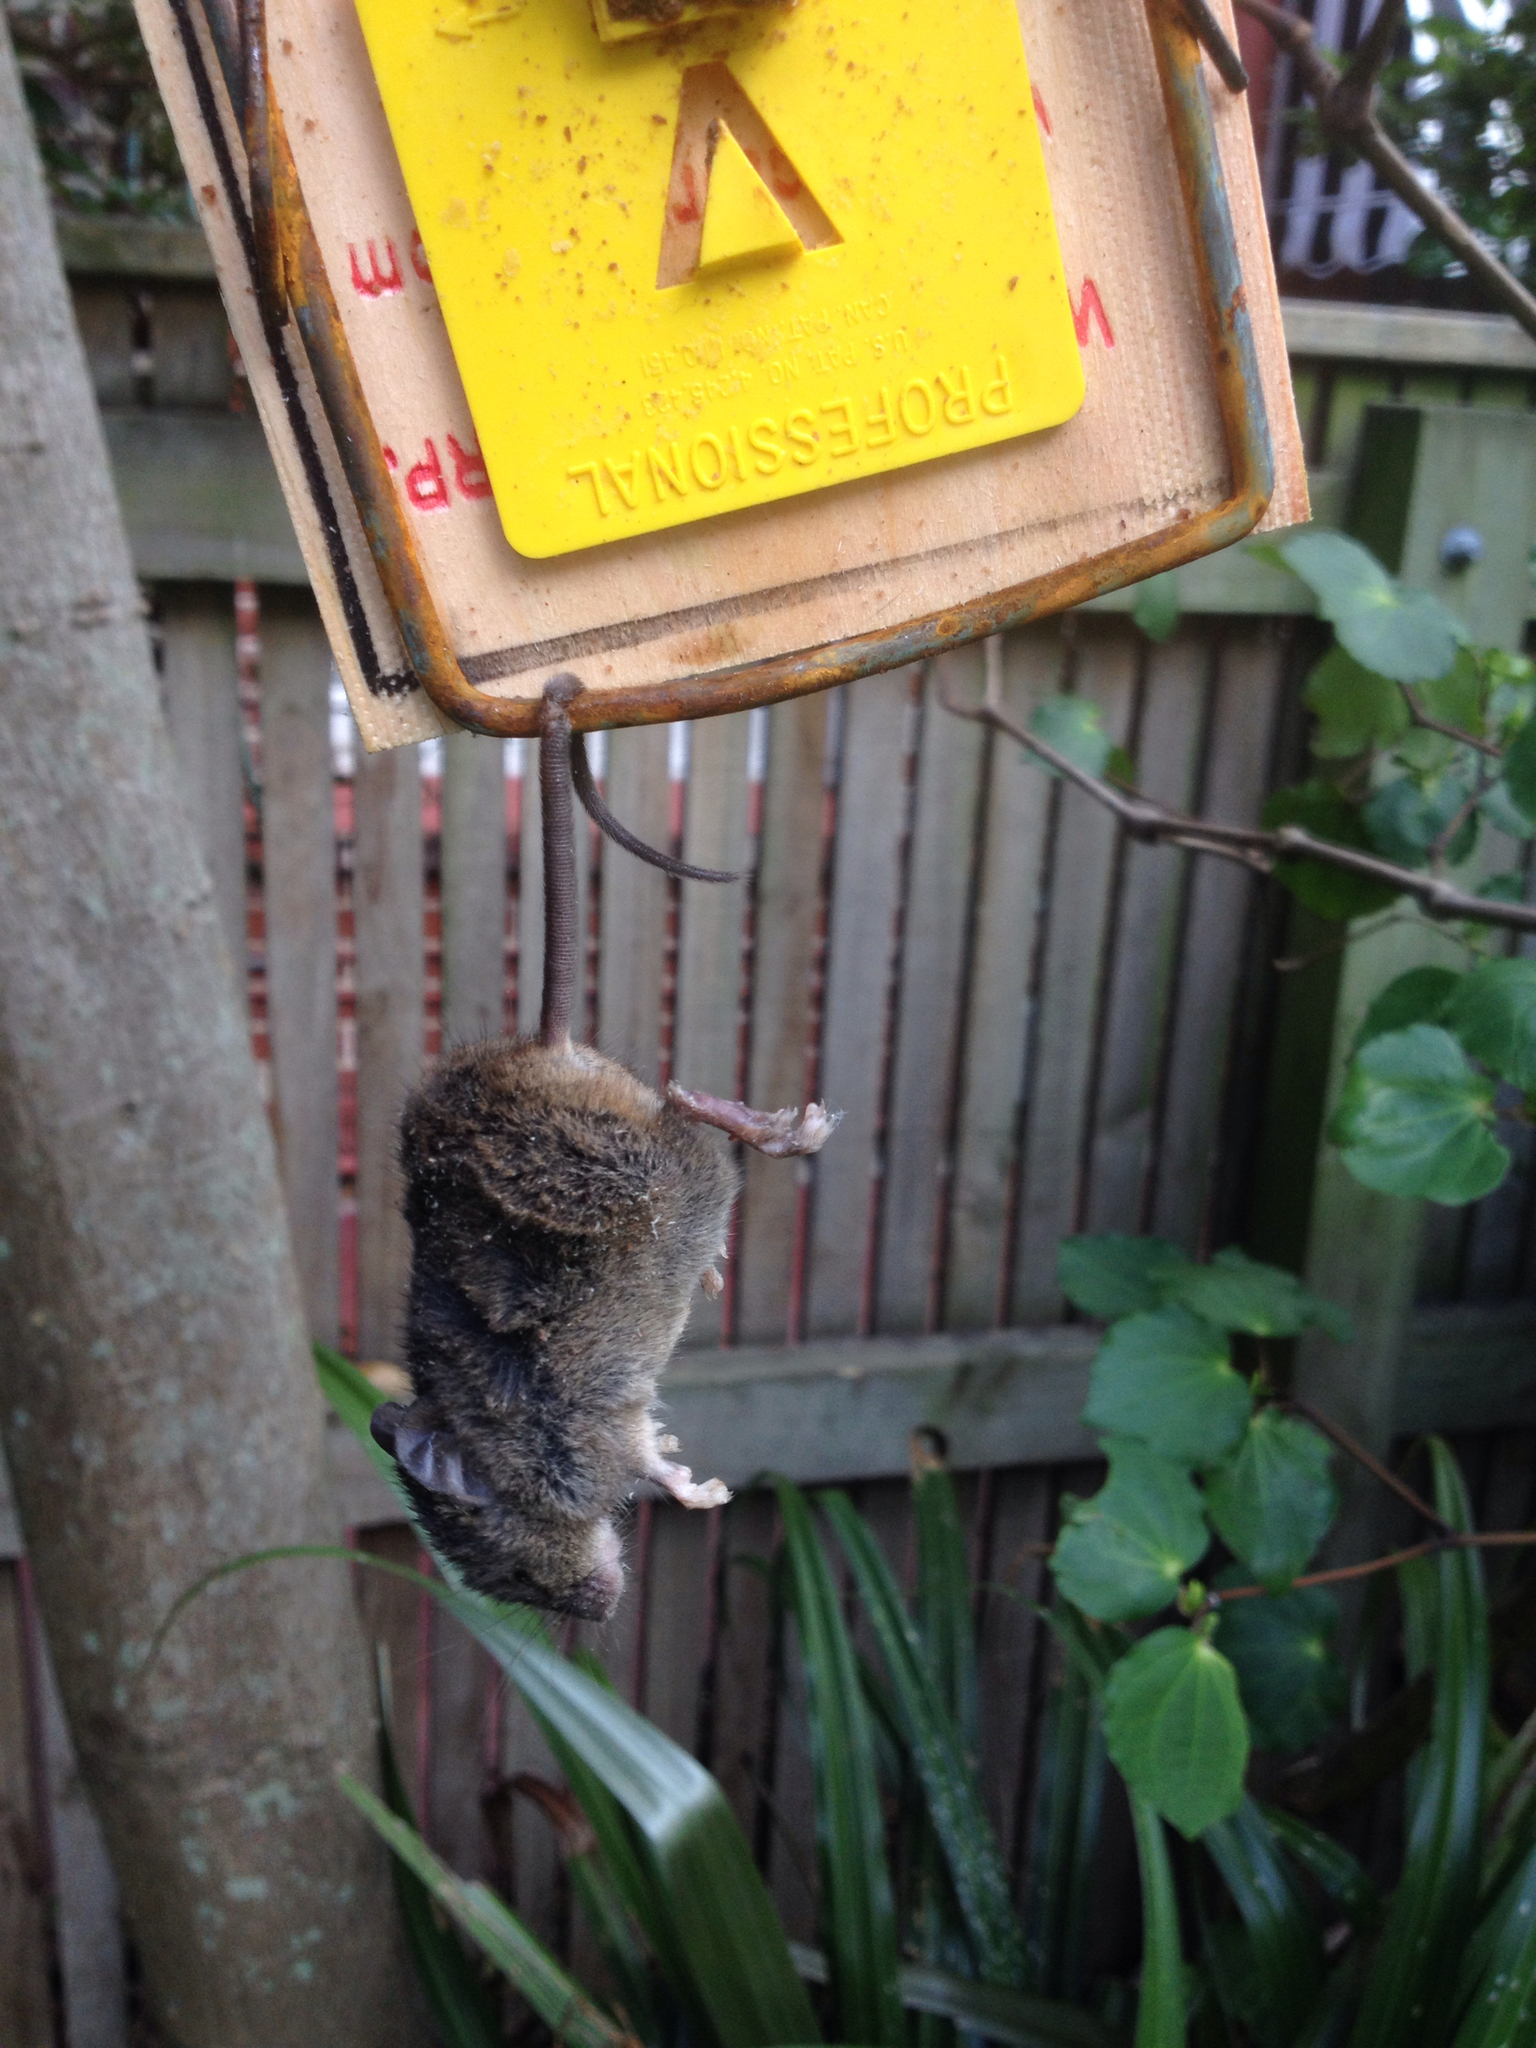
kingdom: Animalia
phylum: Chordata
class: Mammalia
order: Rodentia
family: Muridae
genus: Mus
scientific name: Mus musculus
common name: House mouse
